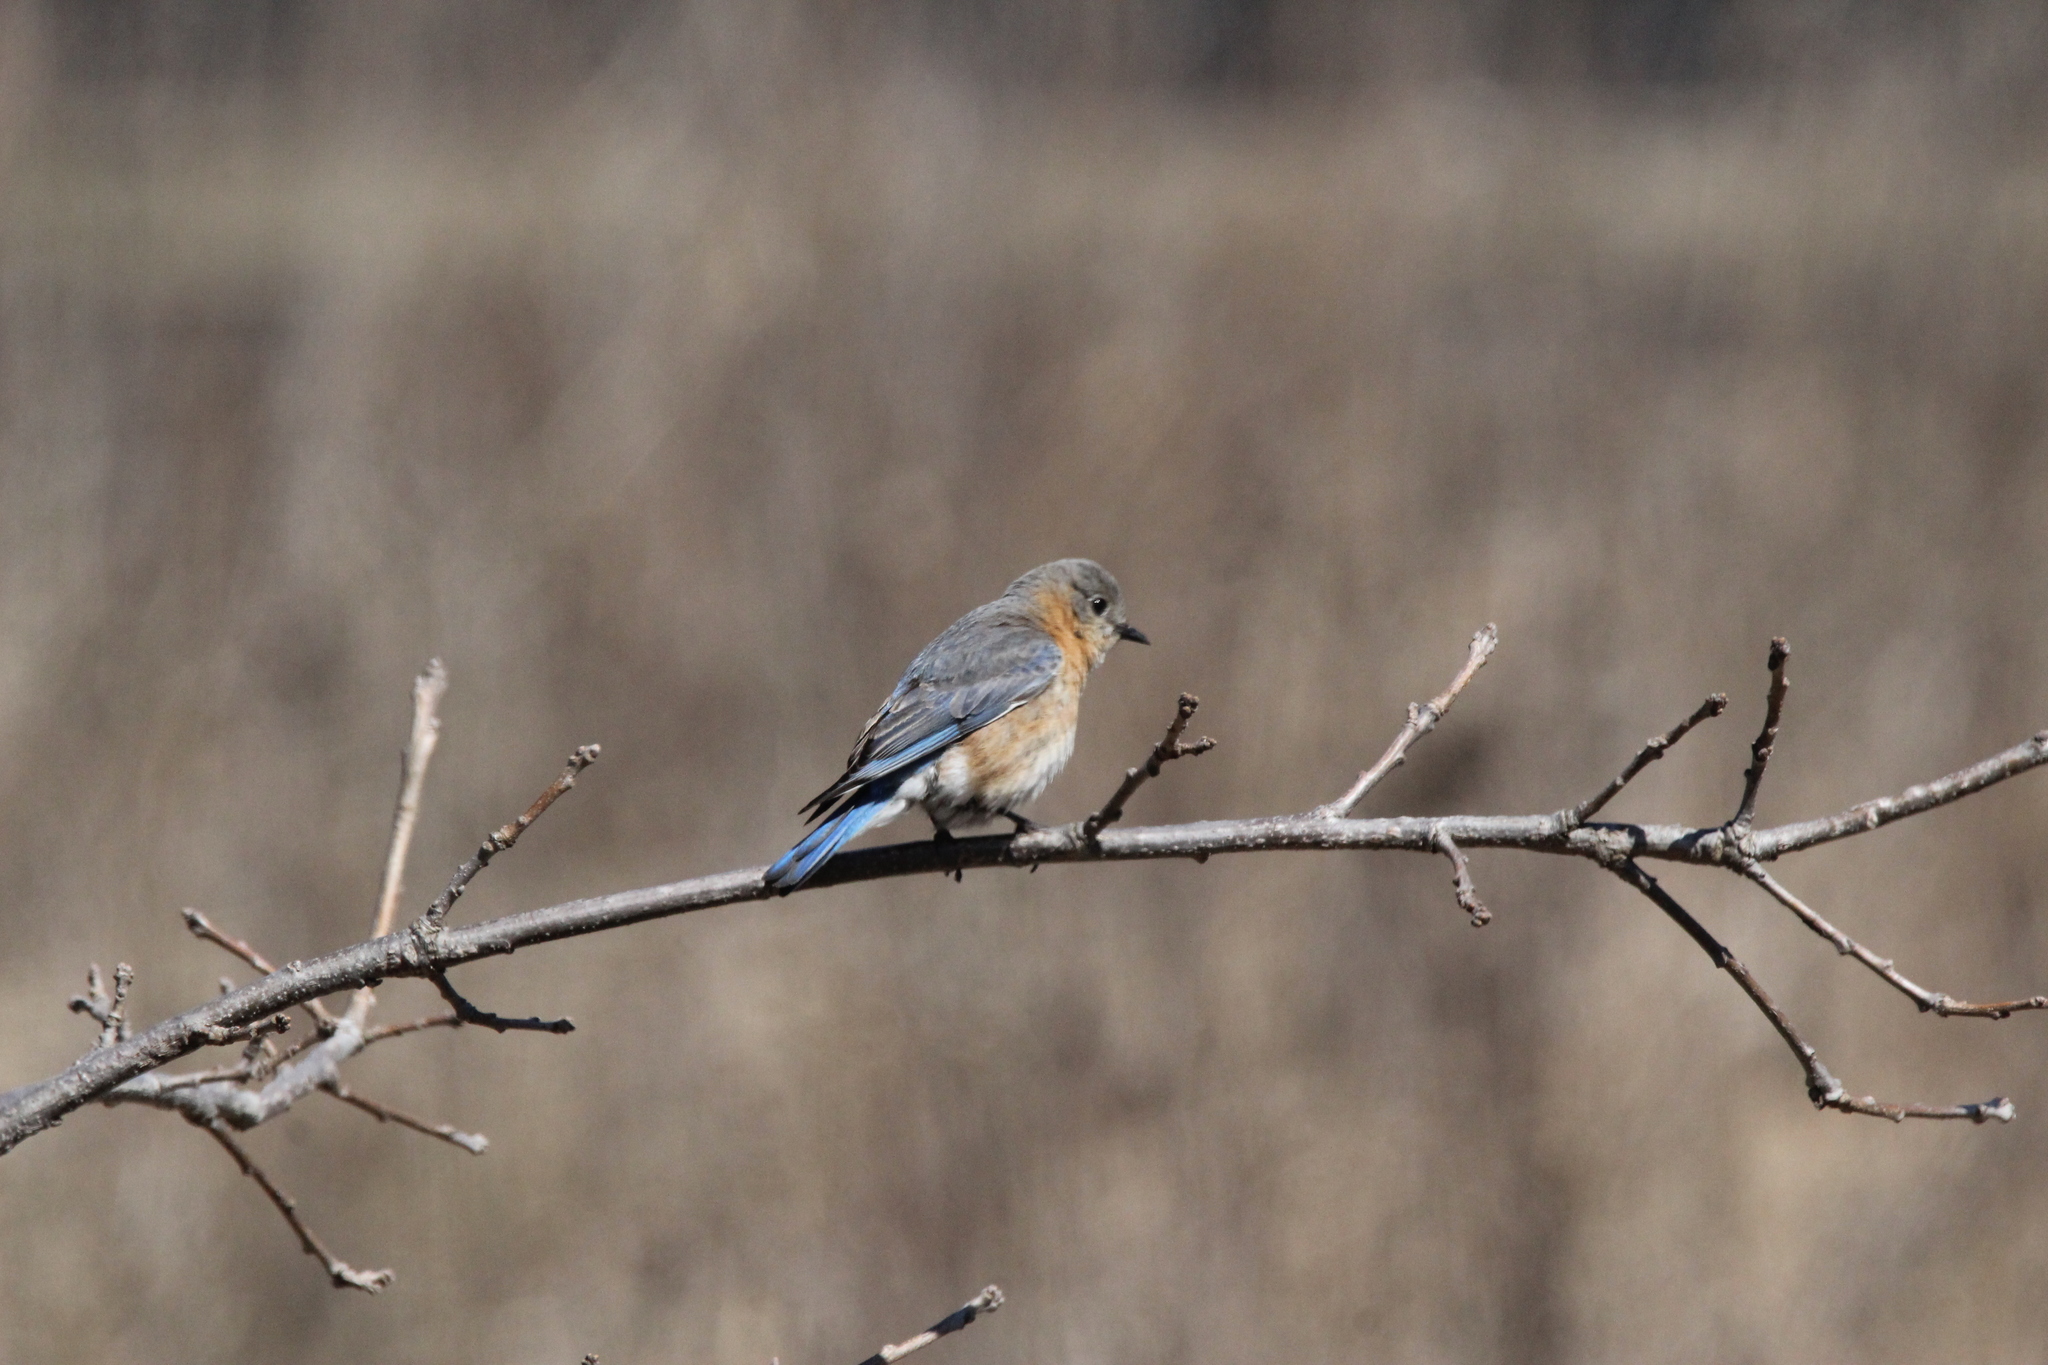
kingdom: Animalia
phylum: Chordata
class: Aves
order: Passeriformes
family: Turdidae
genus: Sialia
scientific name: Sialia sialis
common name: Eastern bluebird
